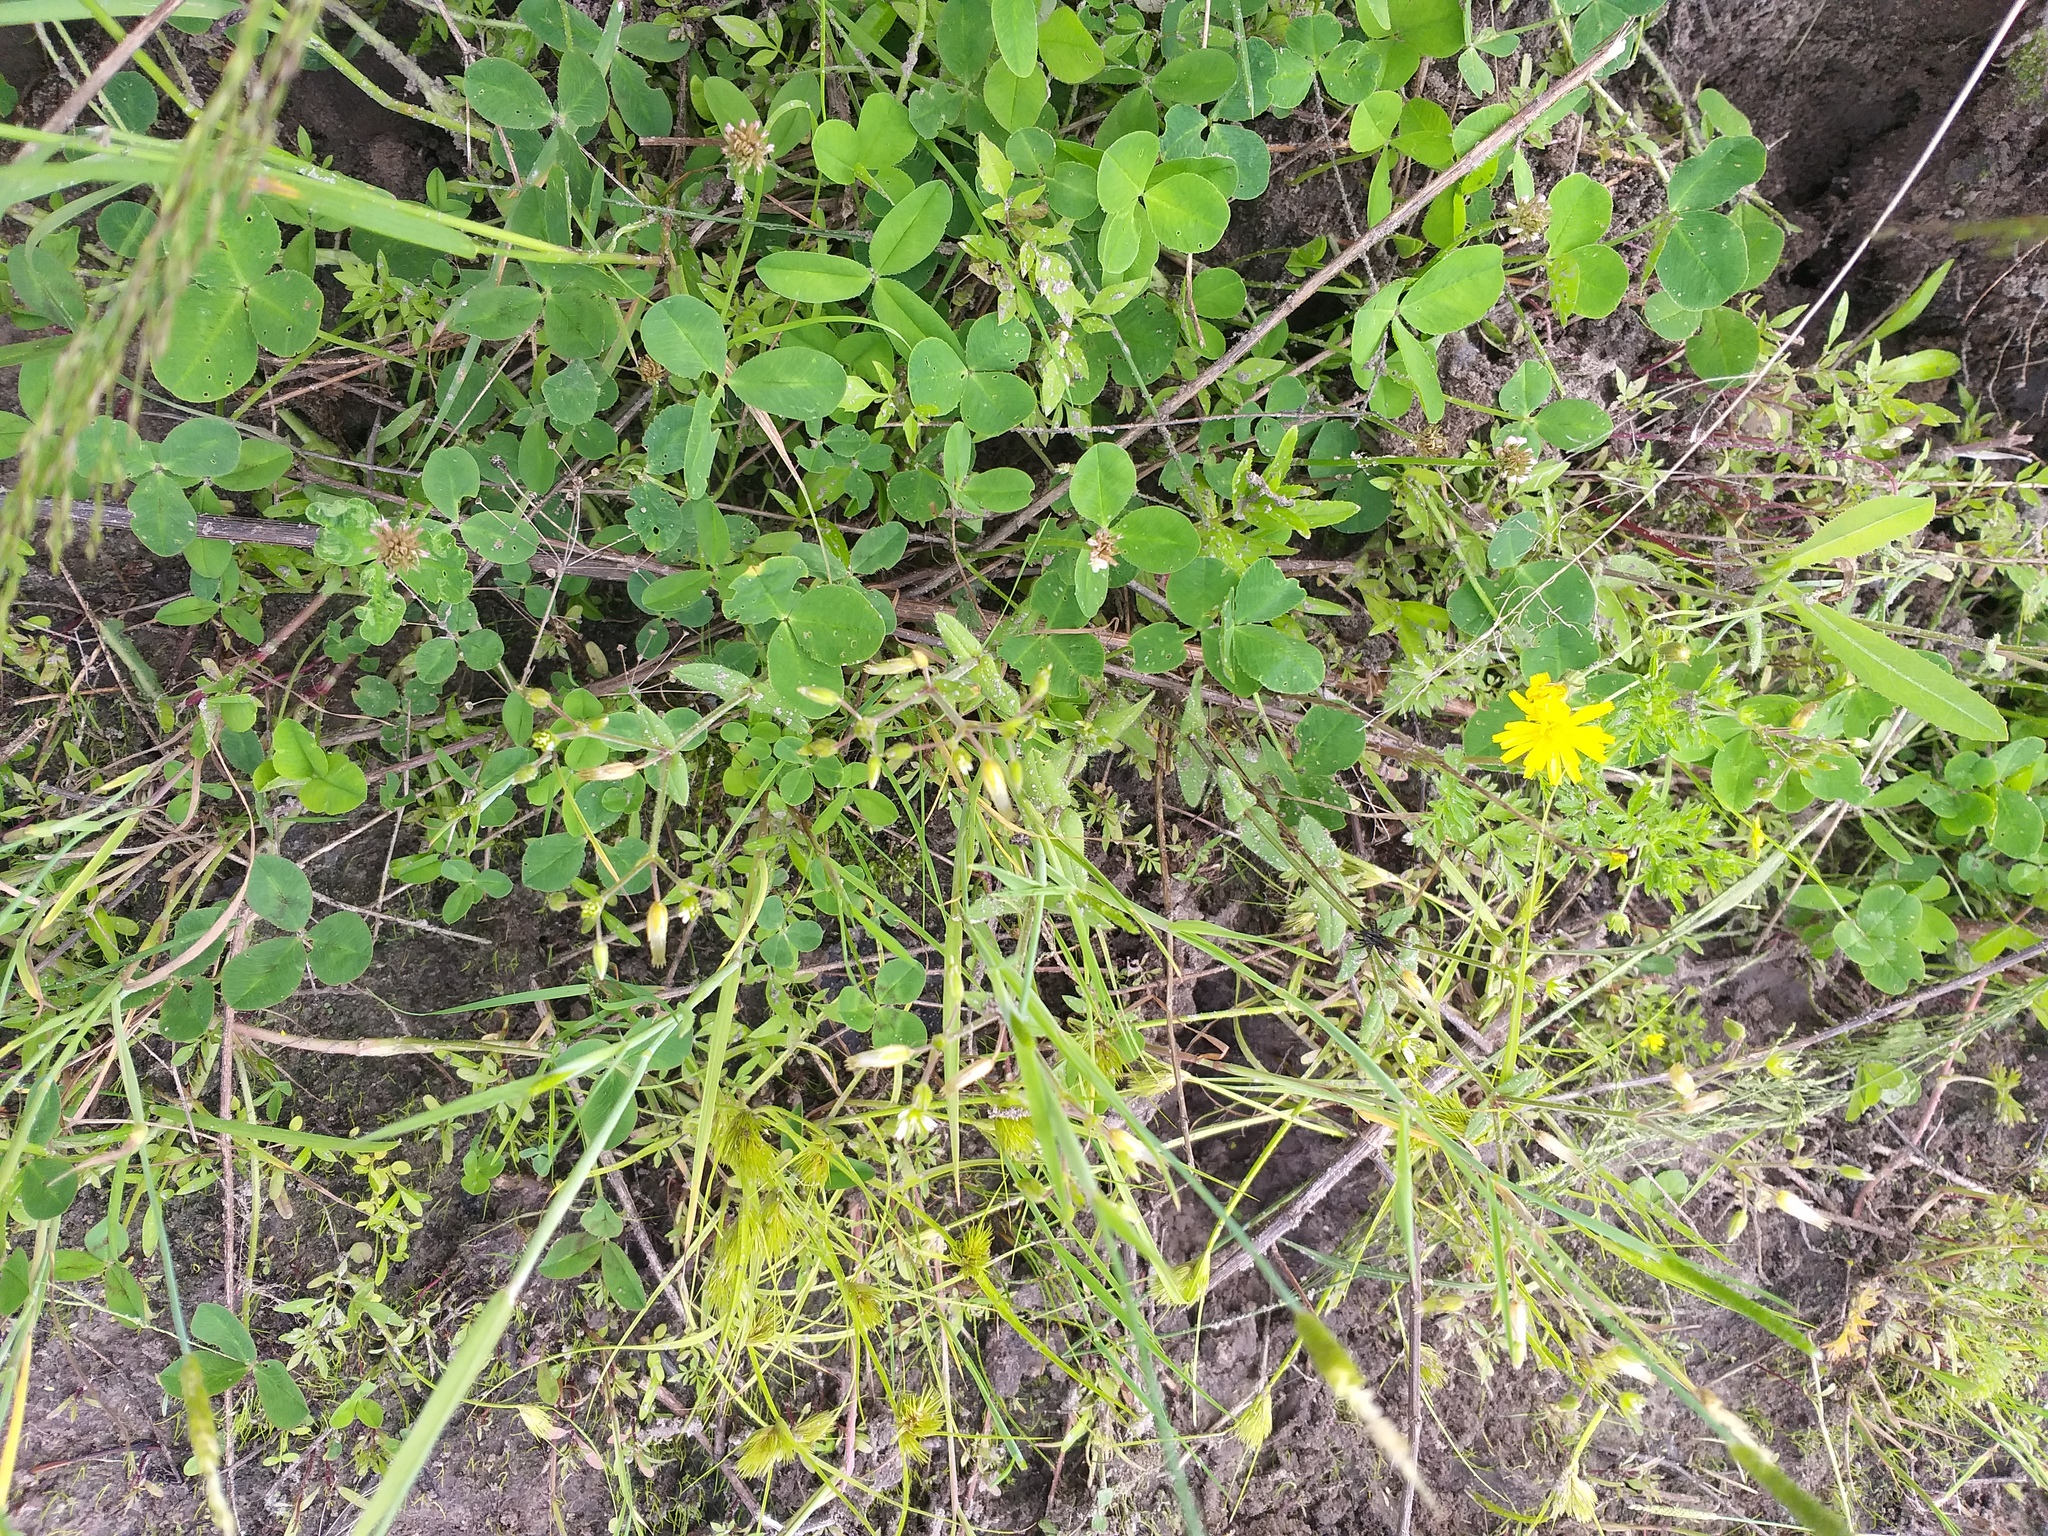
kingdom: Plantae
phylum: Tracheophyta
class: Magnoliopsida
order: Caryophyllales
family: Caryophyllaceae
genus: Cerastium
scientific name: Cerastium holosteoides
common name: Big chickweed
